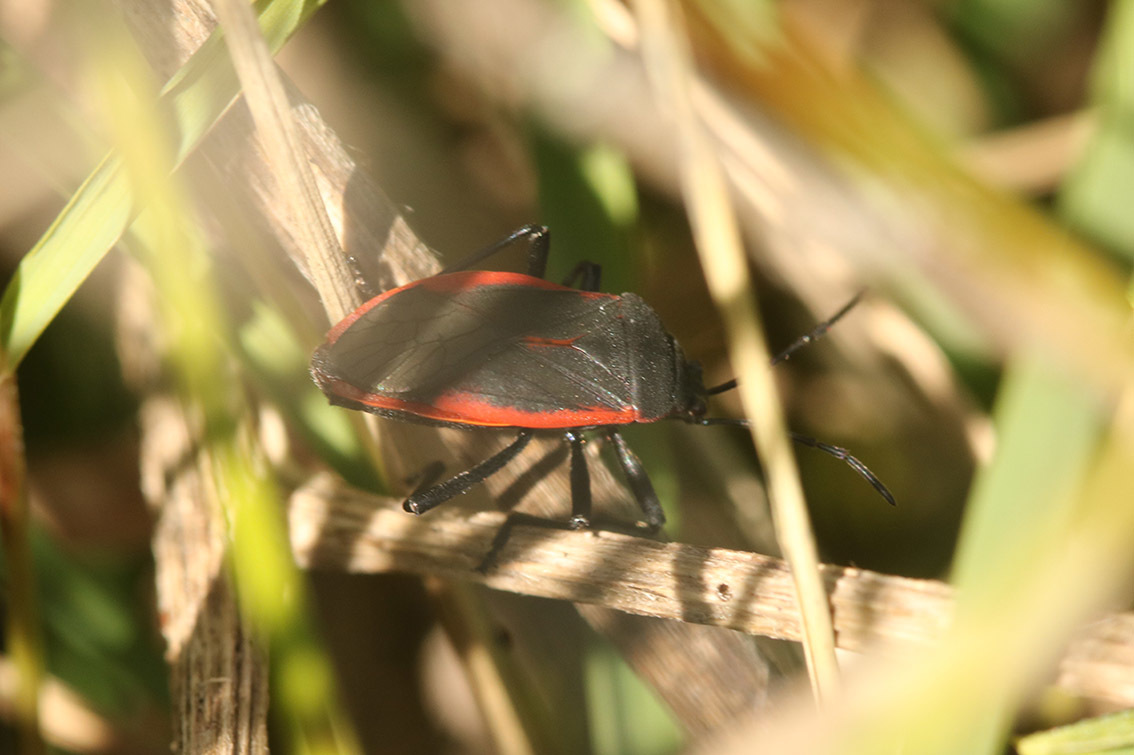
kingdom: Animalia
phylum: Arthropoda
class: Insecta
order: Hemiptera
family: Largidae
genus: Largus
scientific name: Largus rufipennis
